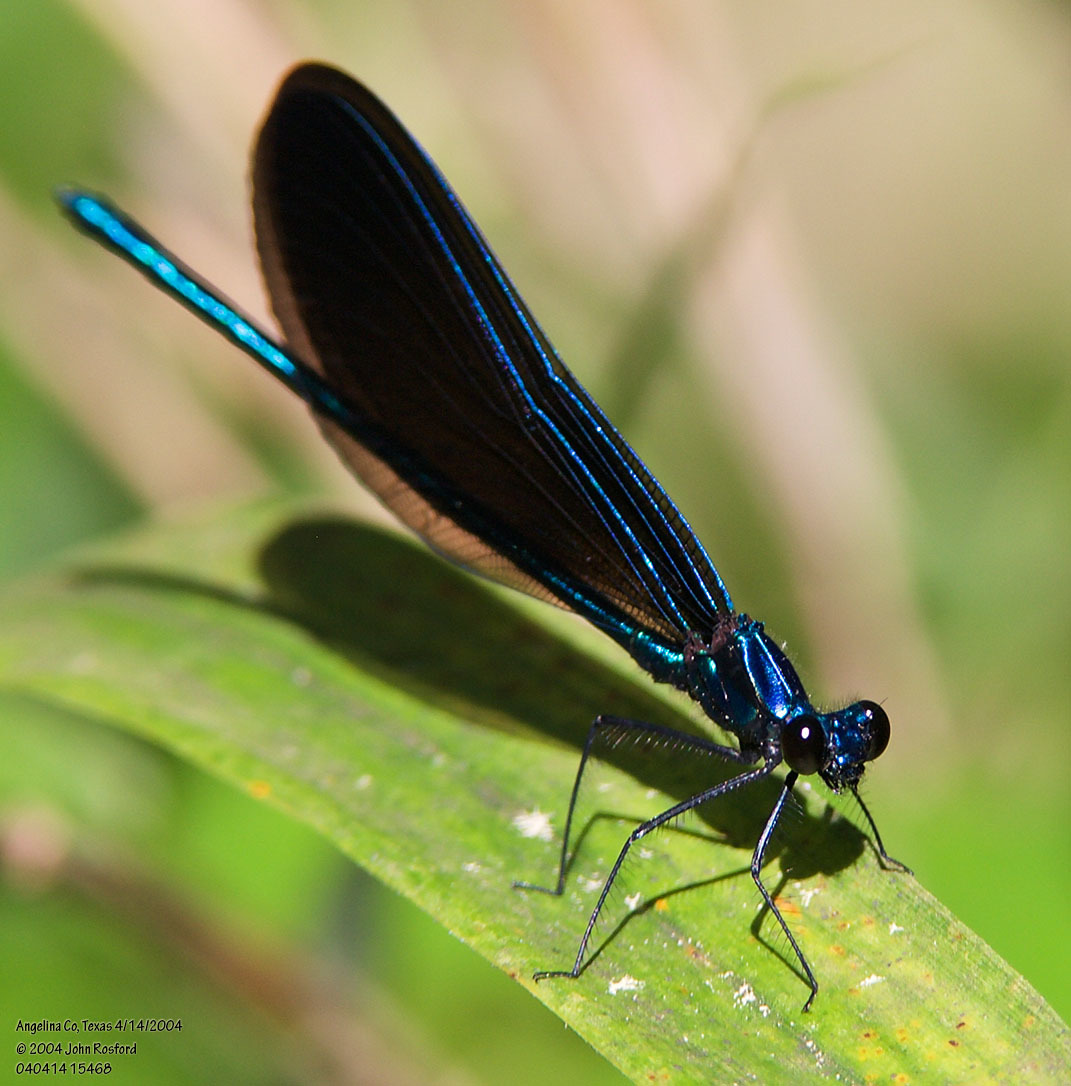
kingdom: Animalia
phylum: Arthropoda
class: Insecta
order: Odonata
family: Calopterygidae
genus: Calopteryx
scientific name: Calopteryx maculata
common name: Ebony jewelwing
